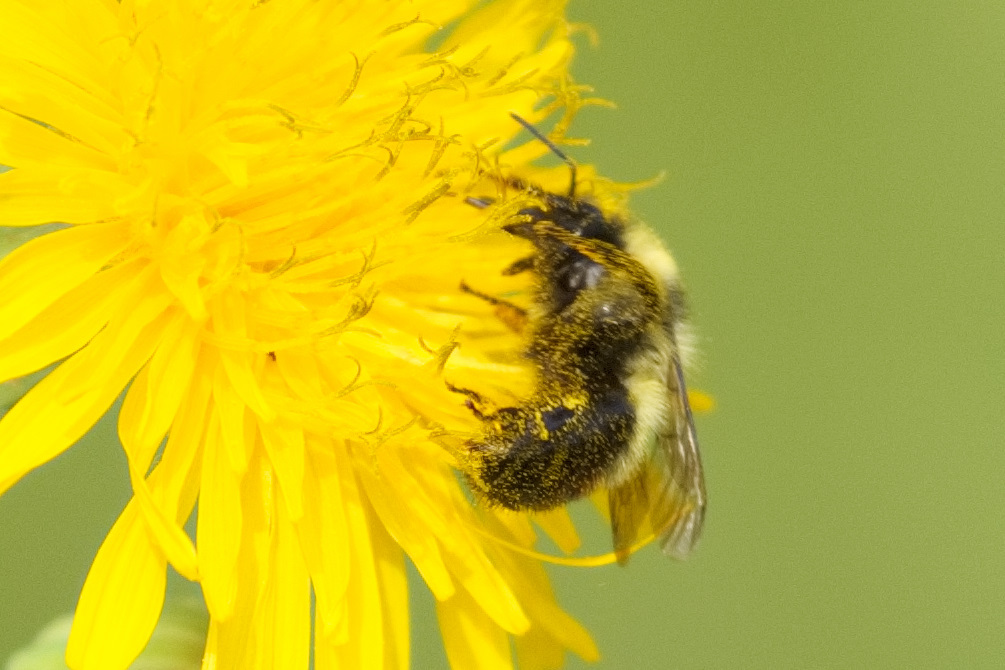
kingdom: Animalia
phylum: Arthropoda
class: Insecta
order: Hymenoptera
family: Apidae
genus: Bombus
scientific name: Bombus rufocinctus
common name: Red-belted bumble bee
